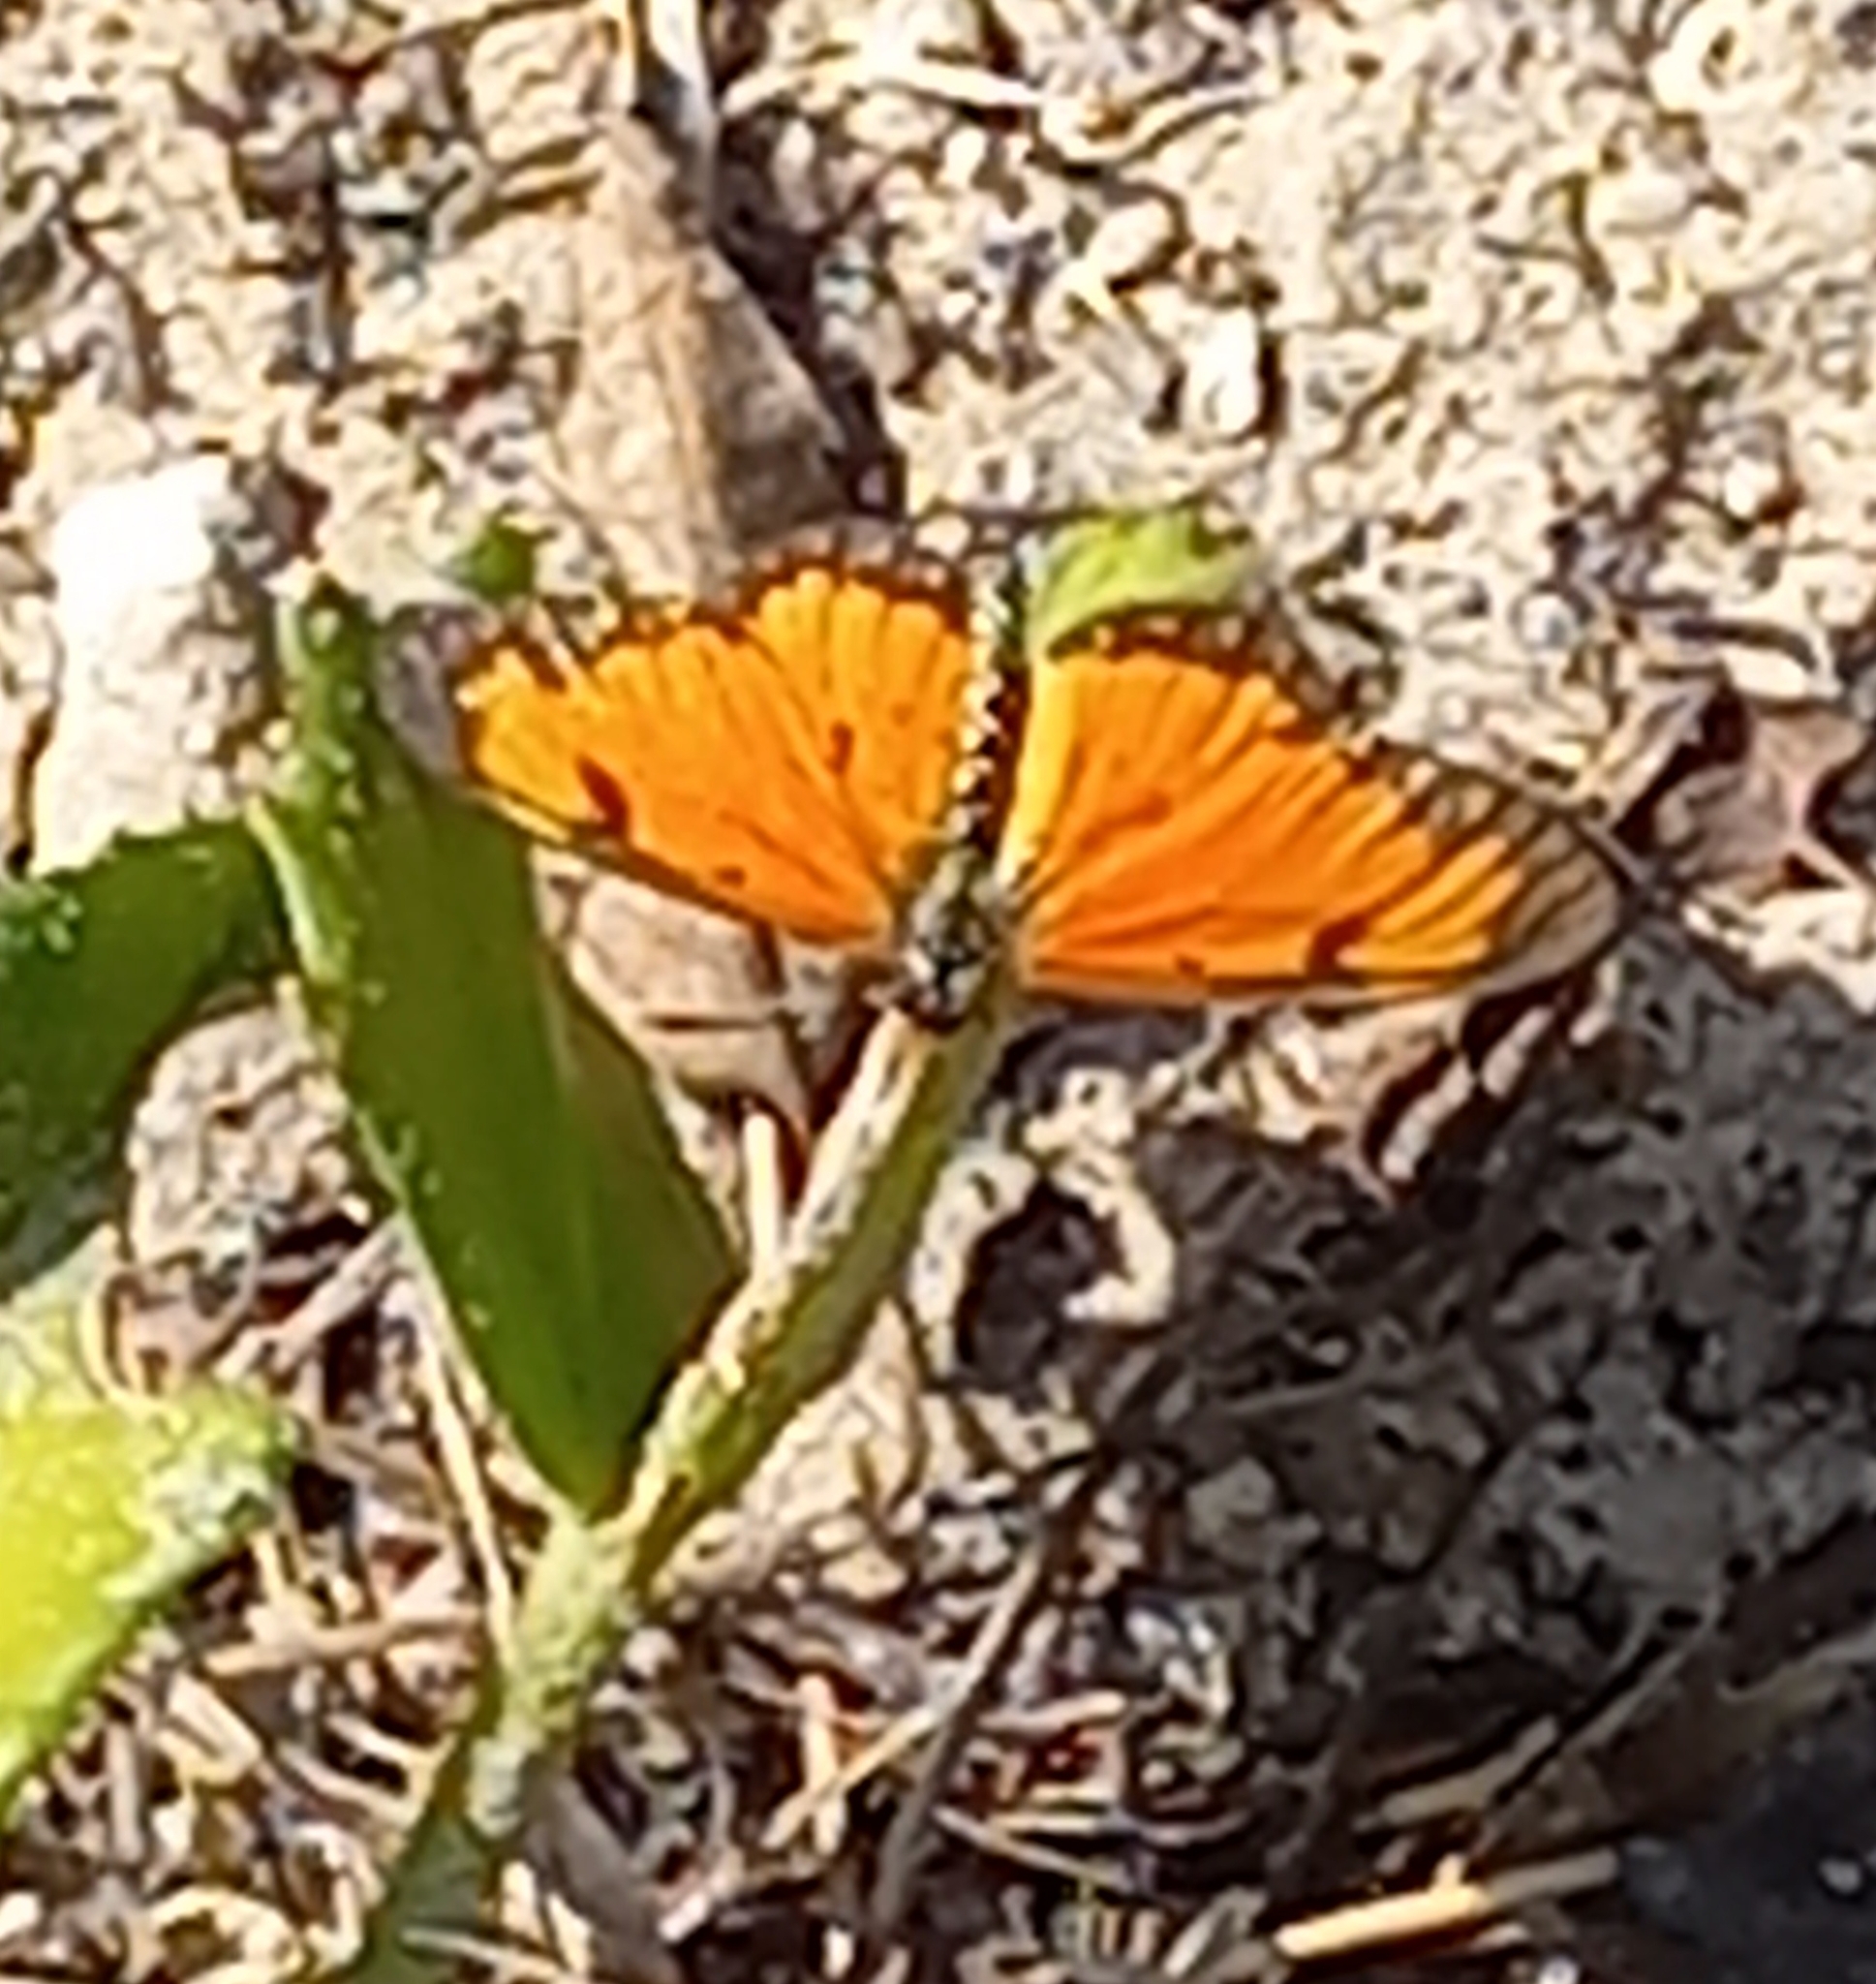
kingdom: Animalia
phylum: Arthropoda
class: Insecta
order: Lepidoptera
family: Nymphalidae
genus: Acraea
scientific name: Acraea Telchinia serena
